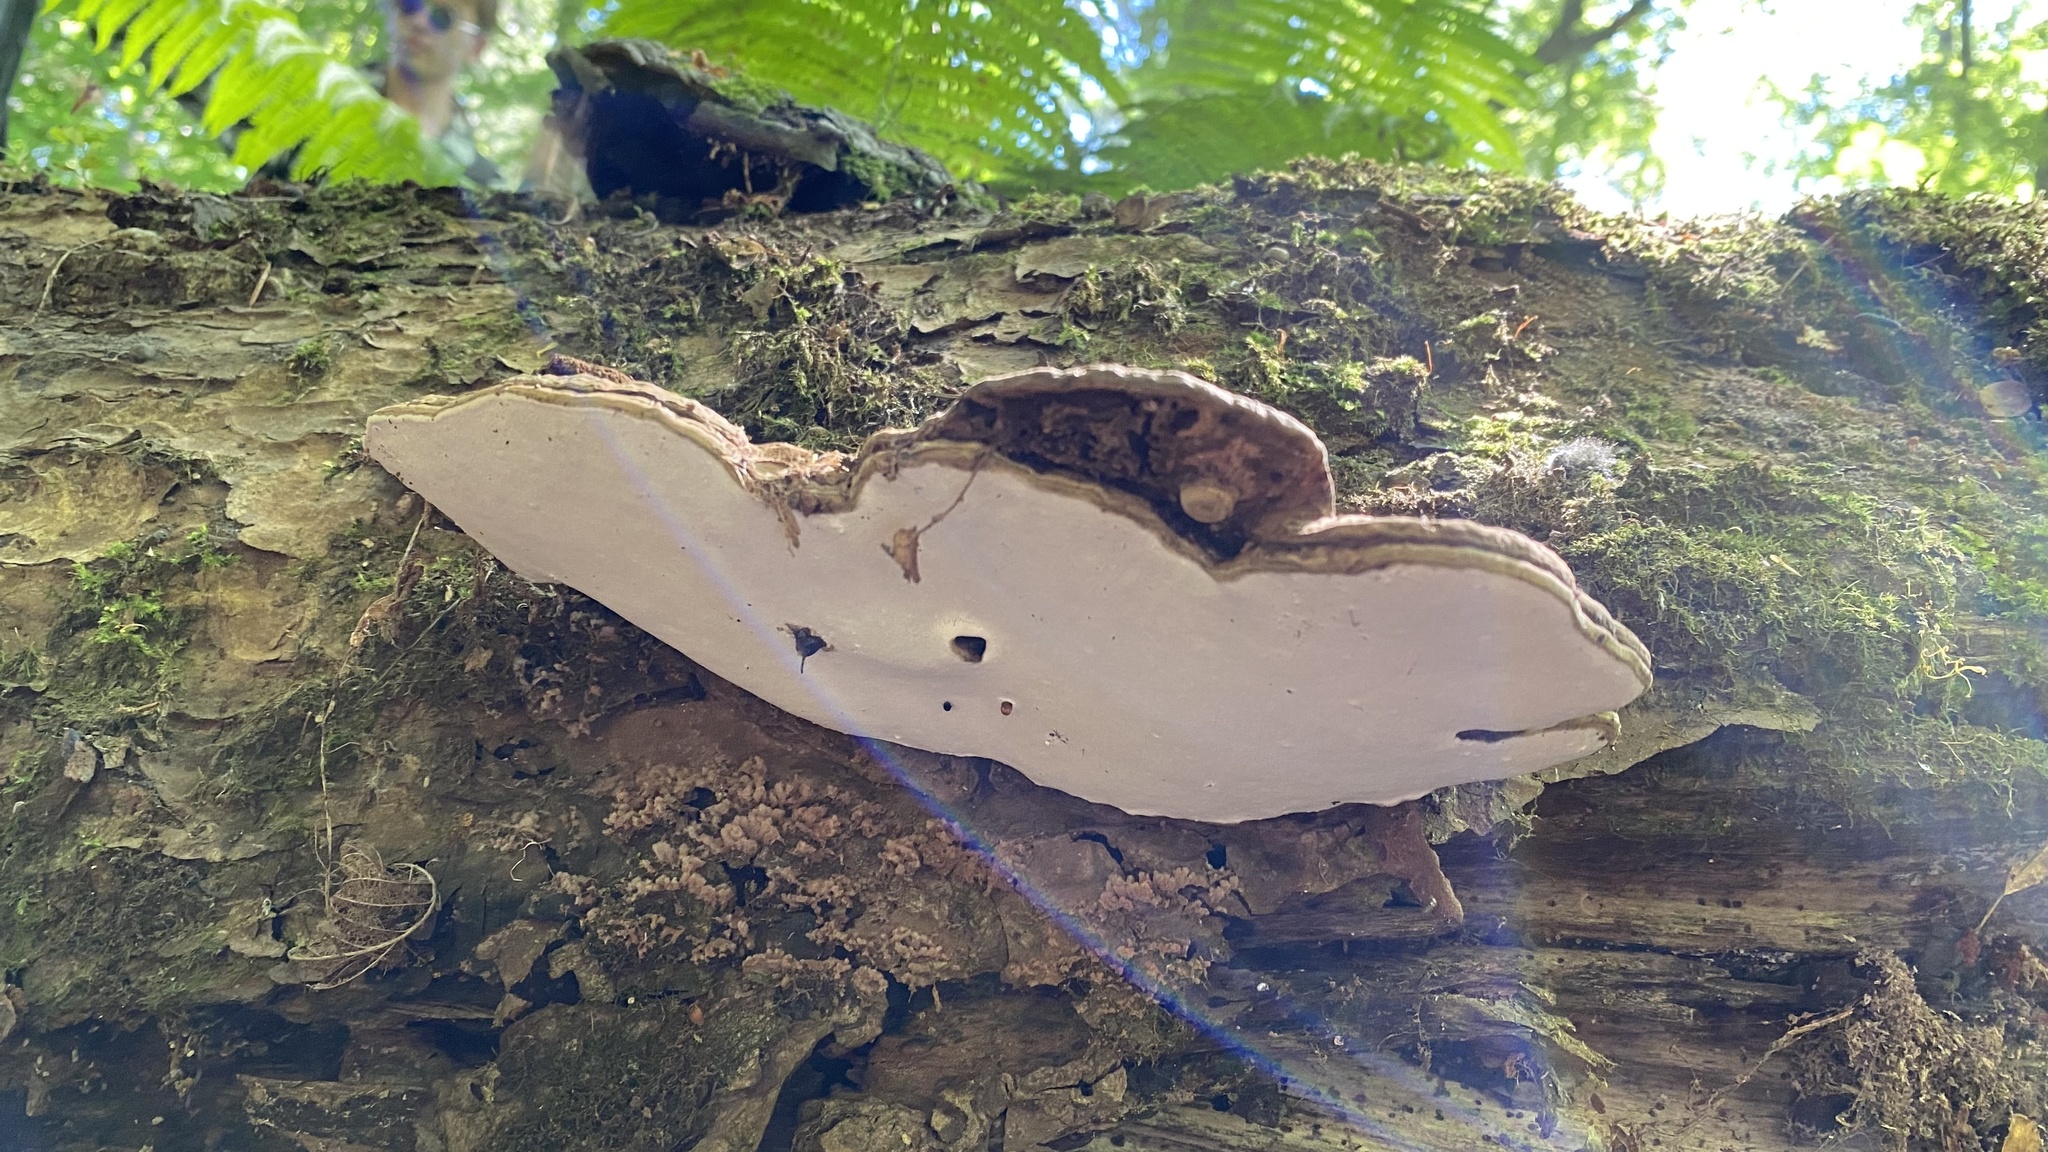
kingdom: Fungi
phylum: Basidiomycota
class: Agaricomycetes
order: Polyporales
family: Polyporaceae
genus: Ganoderma
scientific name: Ganoderma applanatum
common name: Artist's bracket
